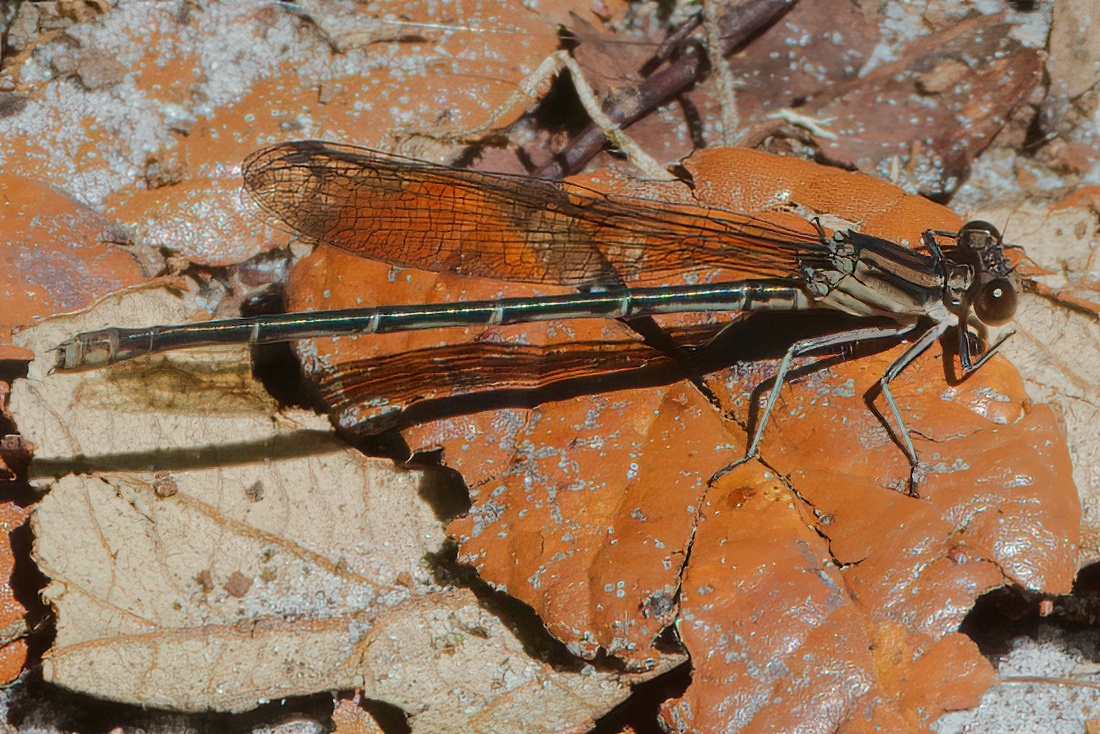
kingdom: Animalia
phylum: Arthropoda
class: Insecta
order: Odonata
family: Coenagrionidae
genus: Argia
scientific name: Argia sedula
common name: Blue-ringed dancer
